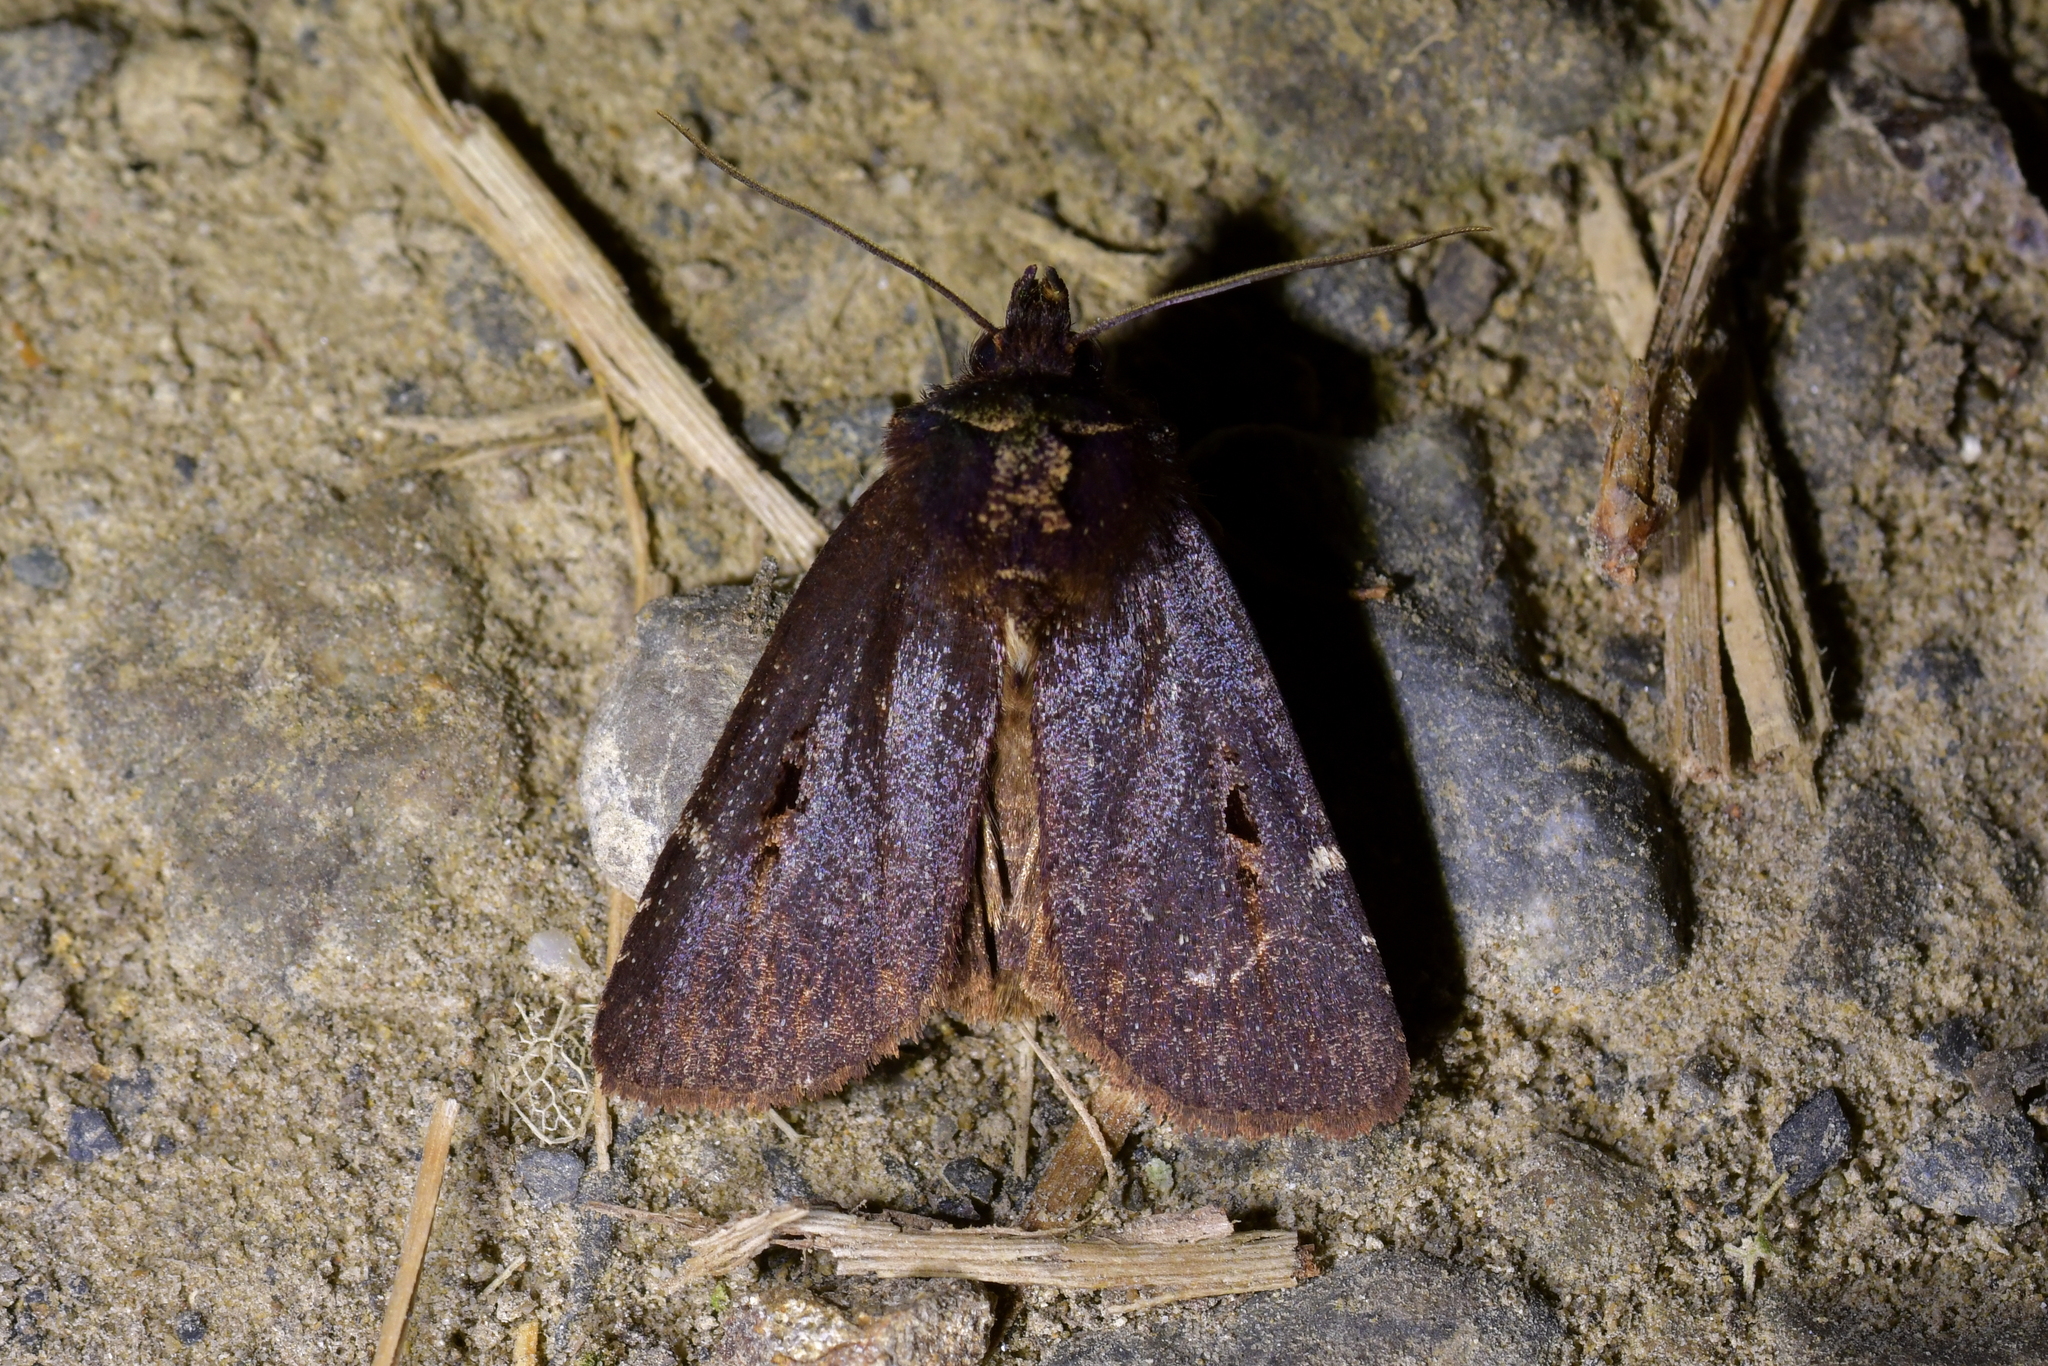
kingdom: Animalia
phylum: Arthropoda
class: Insecta
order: Lepidoptera
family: Noctuidae
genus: Austramathes
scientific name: Austramathes purpurea
